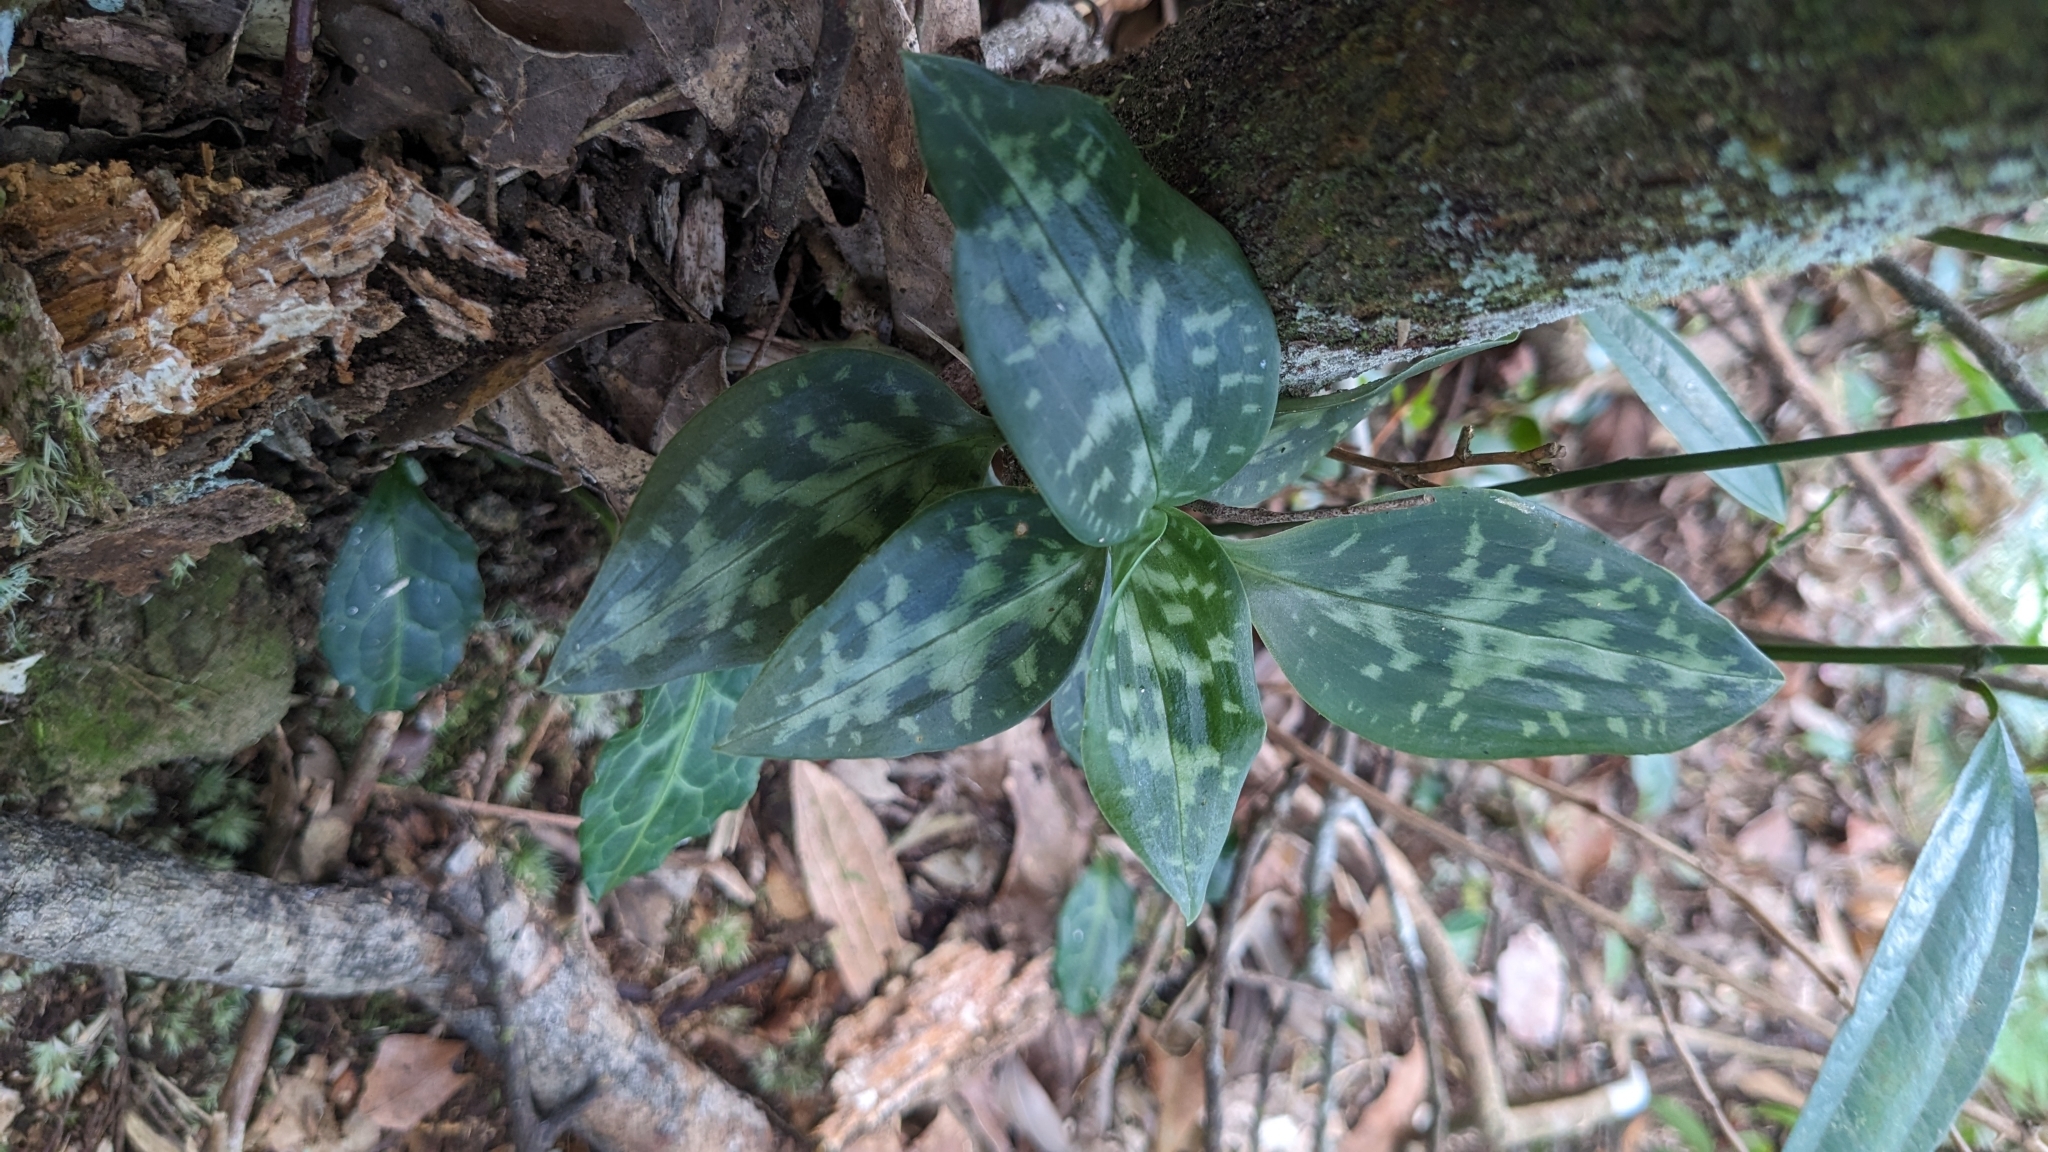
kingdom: Plantae
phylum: Tracheophyta
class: Liliopsida
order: Asparagales
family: Orchidaceae
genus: Goodyera
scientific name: Goodyera daibuzanensis
